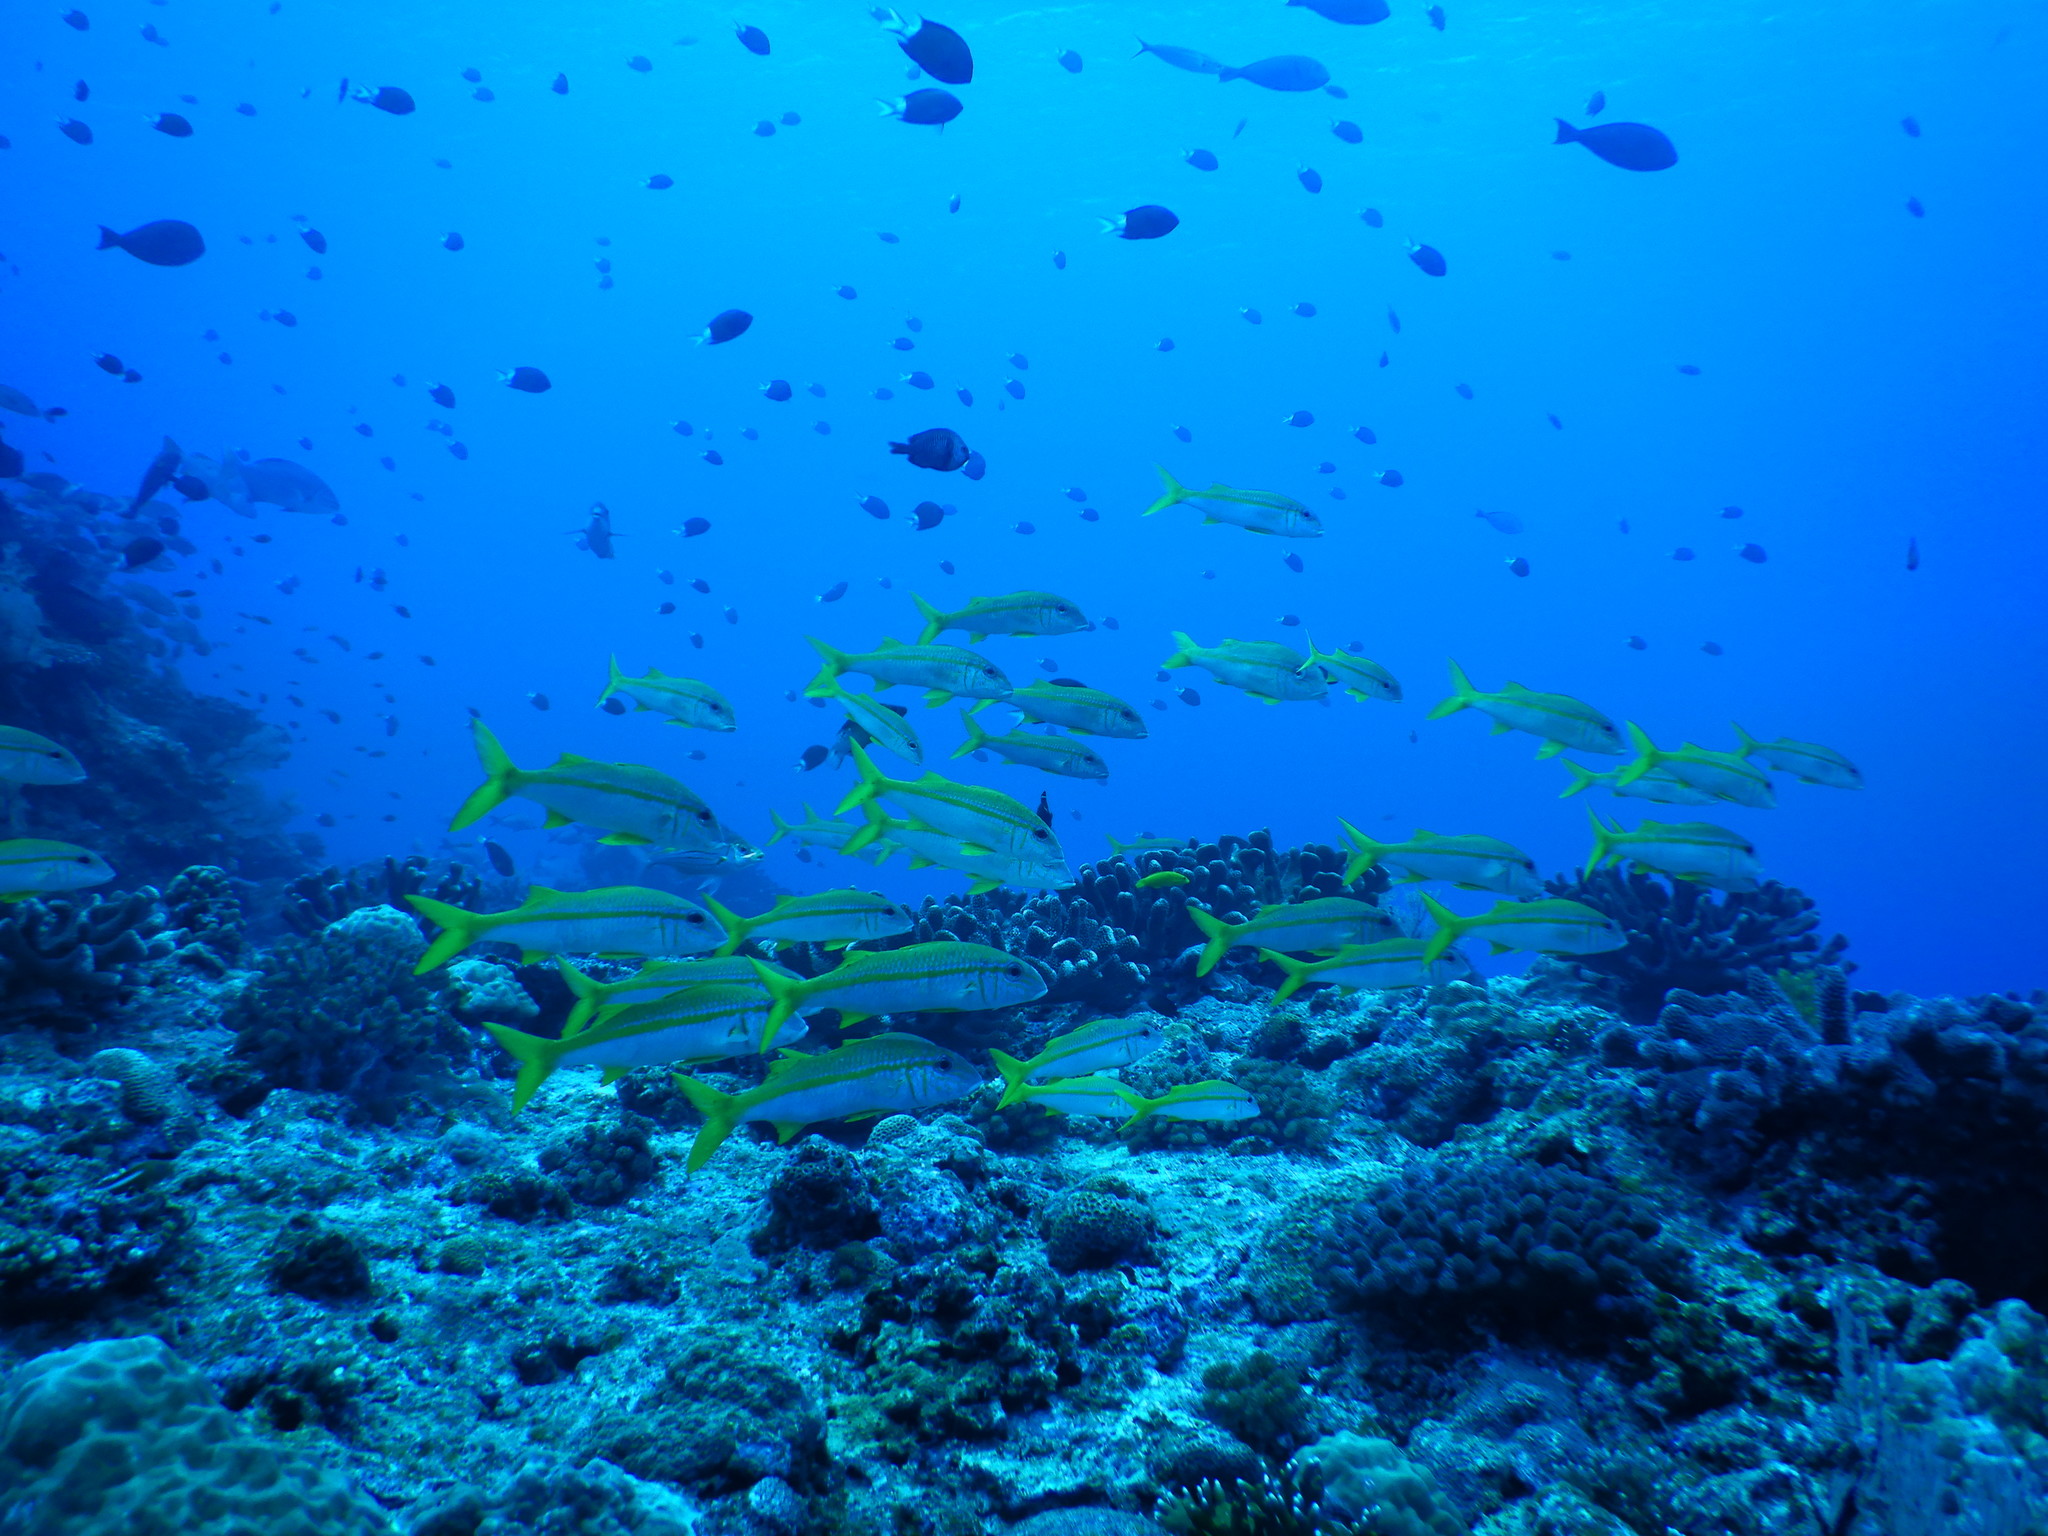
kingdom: Animalia
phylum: Chordata
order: Perciformes
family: Mullidae
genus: Mulloidichthys
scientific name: Mulloidichthys vanicolensis
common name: Yellowfin goatfish
